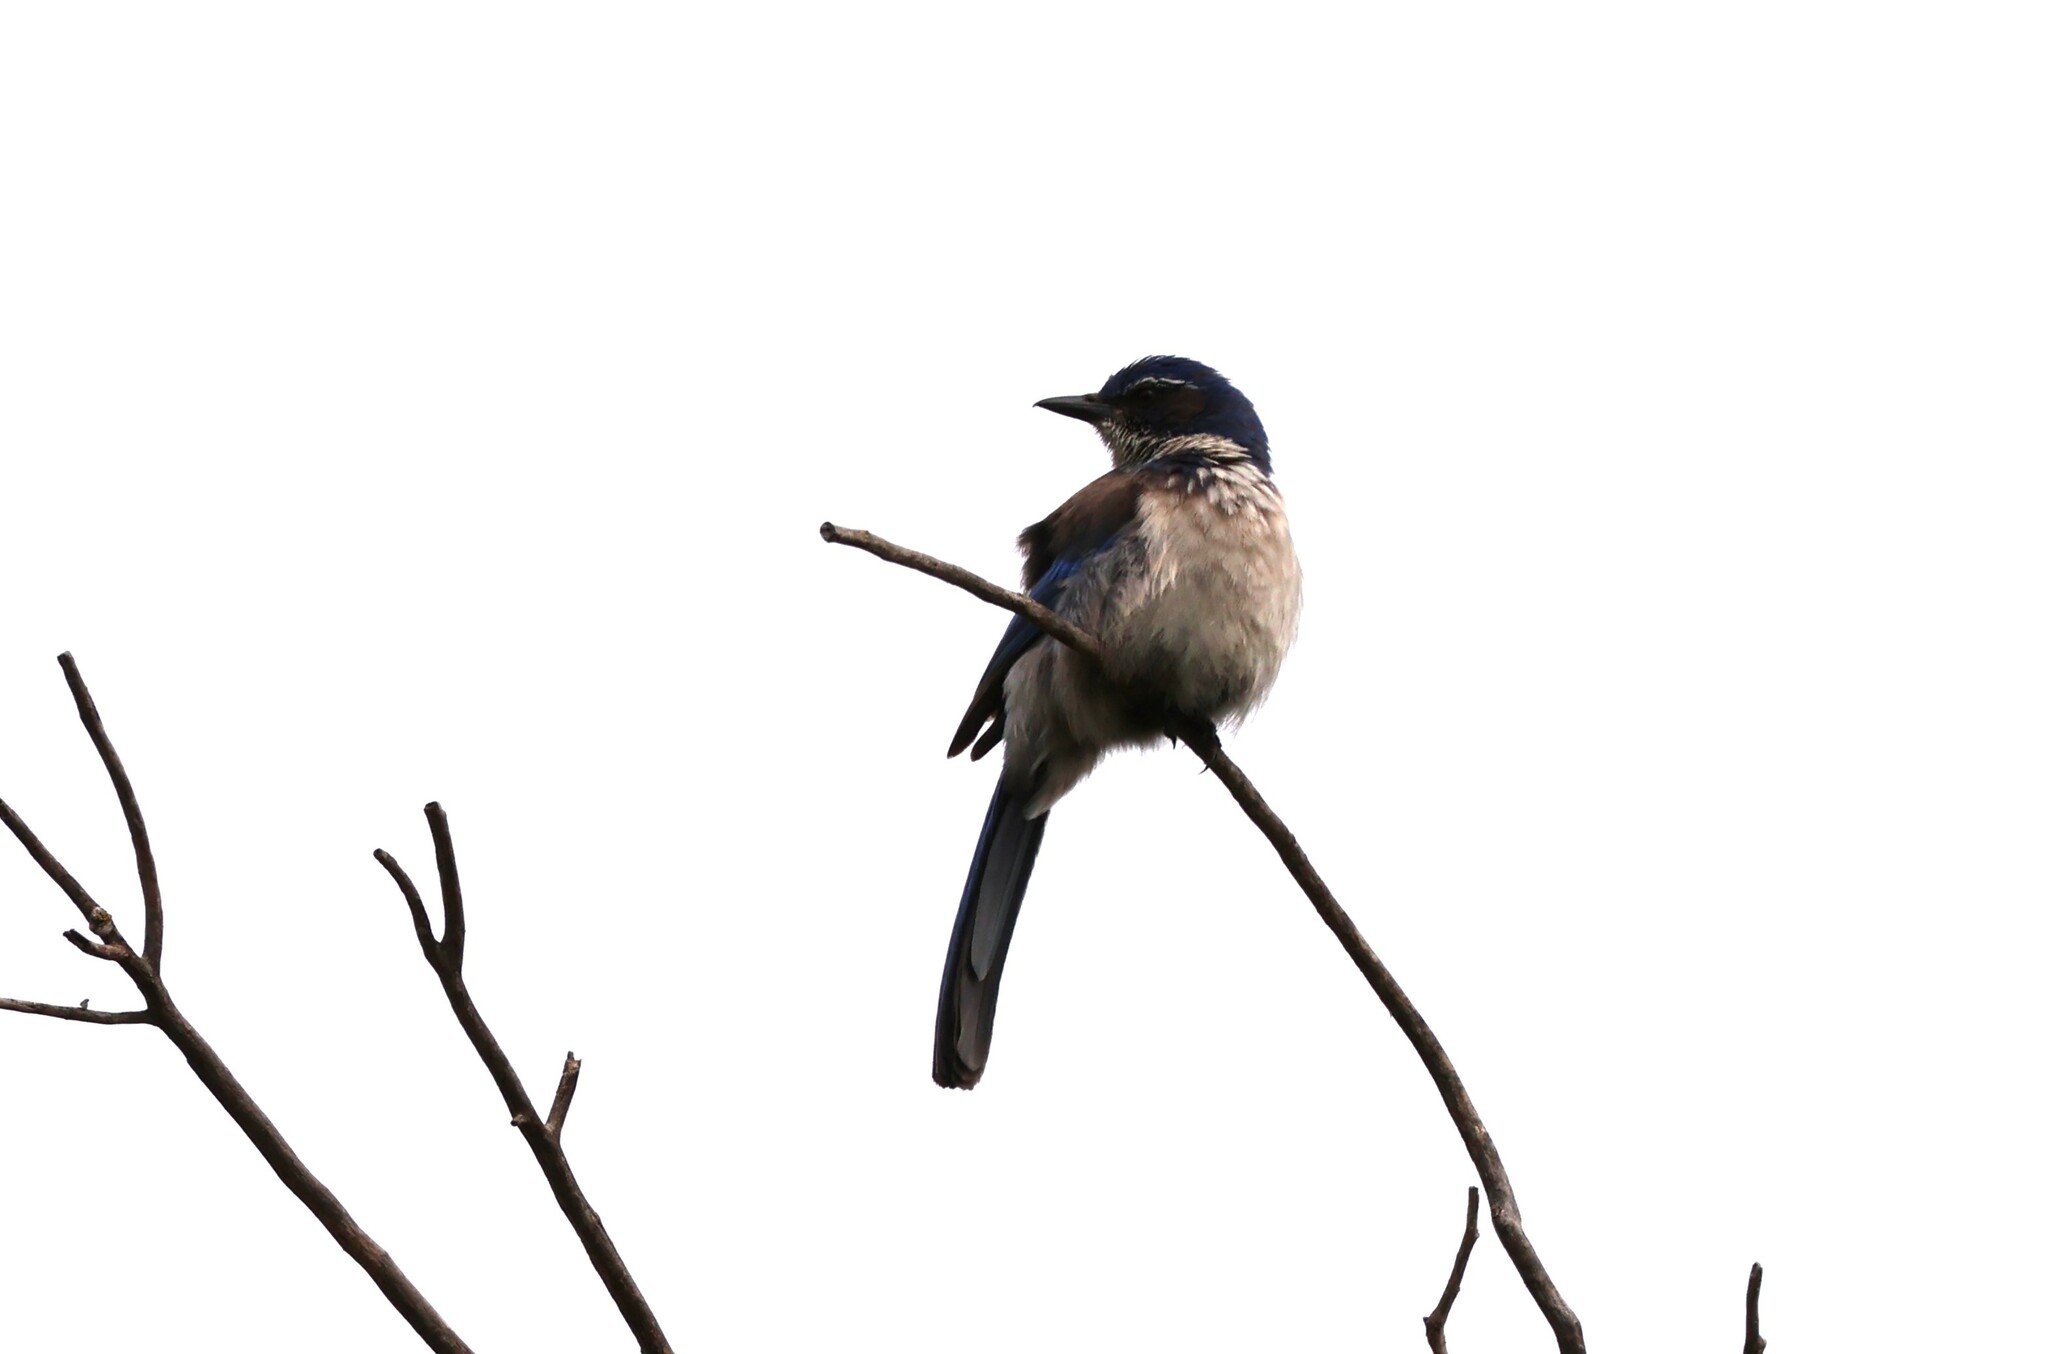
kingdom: Animalia
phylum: Chordata
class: Aves
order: Passeriformes
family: Corvidae
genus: Aphelocoma
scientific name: Aphelocoma californica
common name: California scrub-jay
